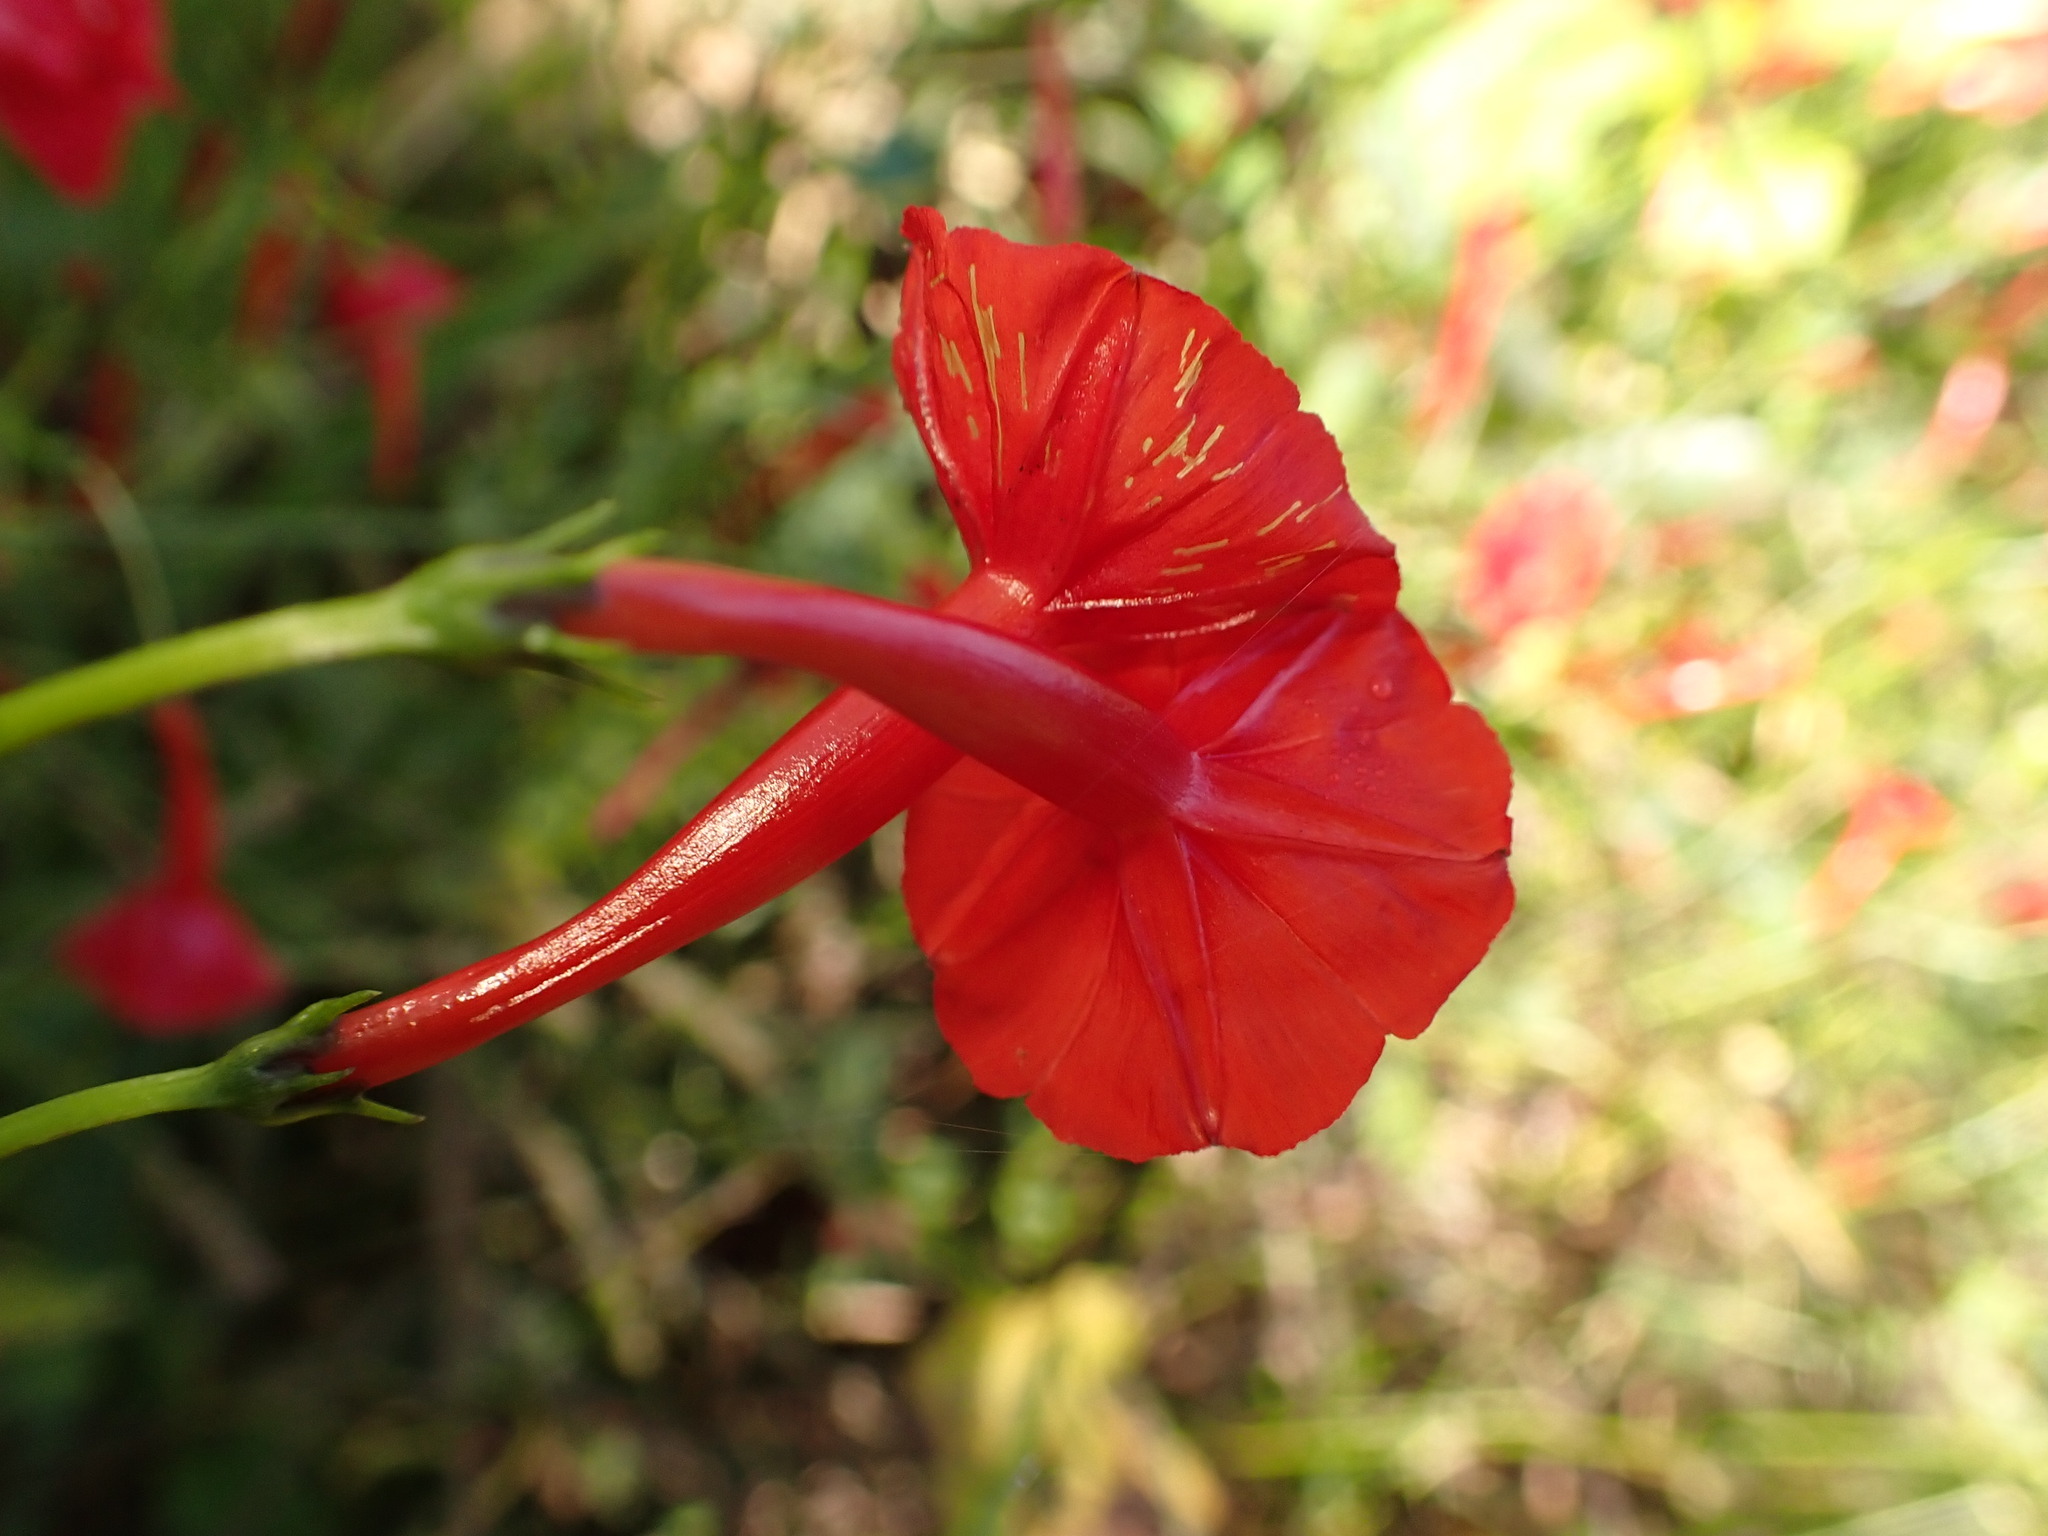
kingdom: Plantae
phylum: Tracheophyta
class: Magnoliopsida
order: Solanales
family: Convolvulaceae
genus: Ipomoea
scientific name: Ipomoea hederifolia
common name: Ivy-leaf morning-glory
